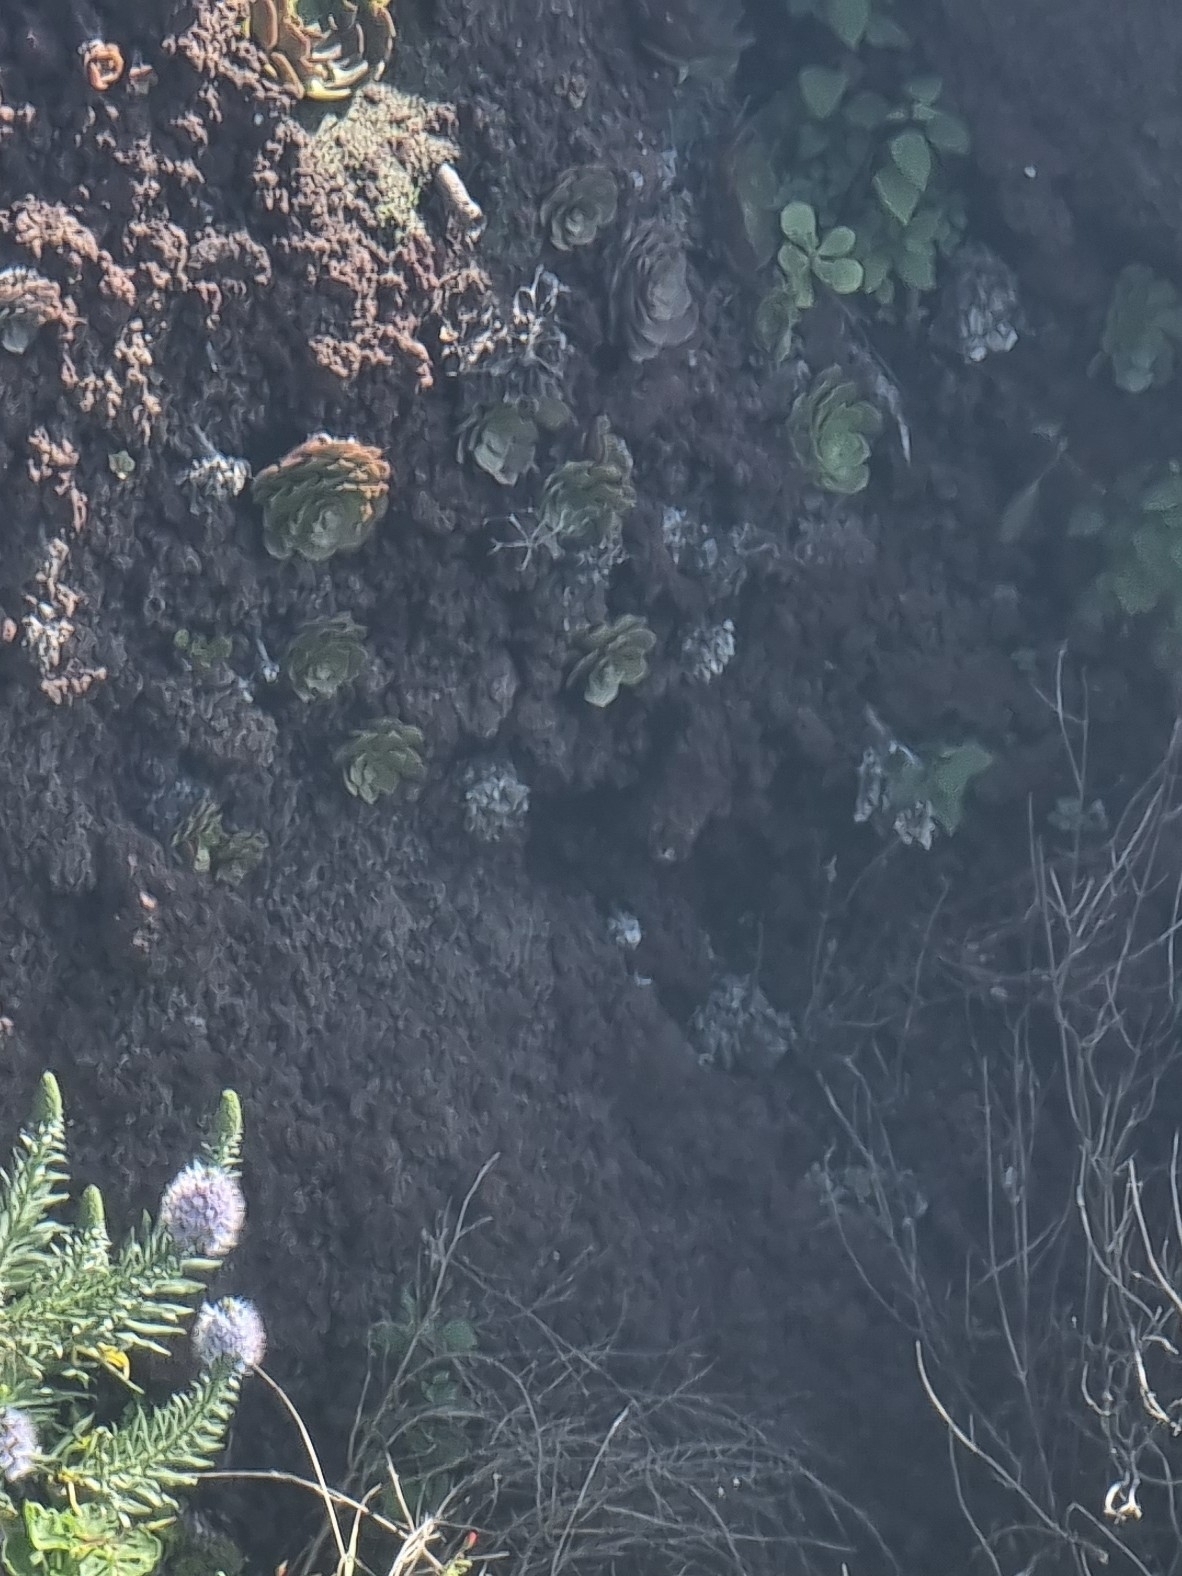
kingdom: Plantae
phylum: Tracheophyta
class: Magnoliopsida
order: Saxifragales
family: Crassulaceae
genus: Aeonium
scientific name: Aeonium glandulosum
